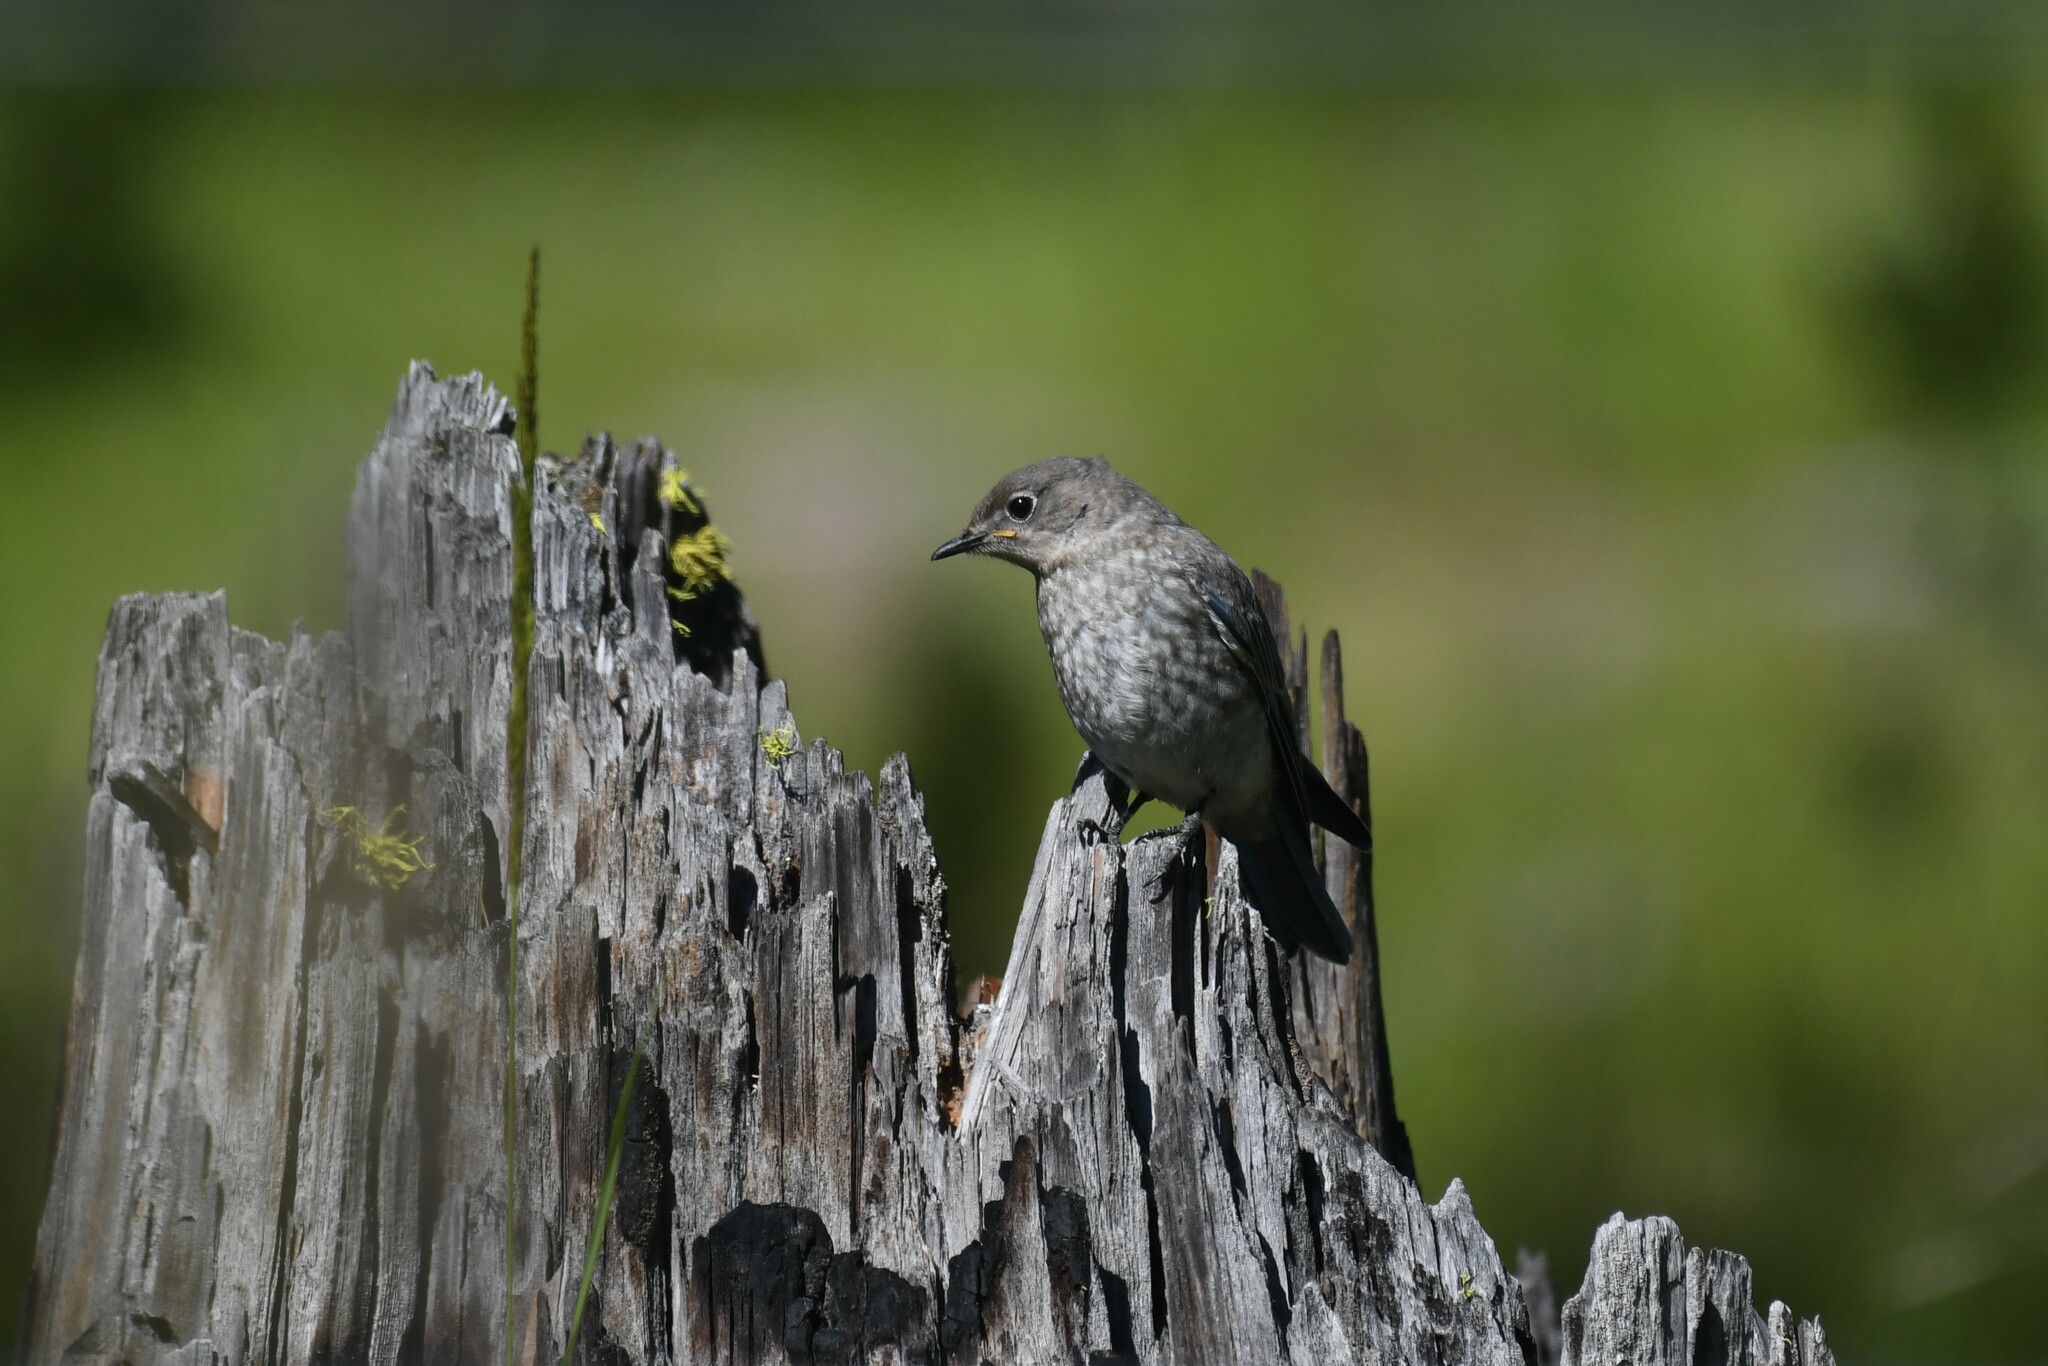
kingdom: Animalia
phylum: Chordata
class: Aves
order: Passeriformes
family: Turdidae
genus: Sialia
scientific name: Sialia currucoides
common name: Mountain bluebird
